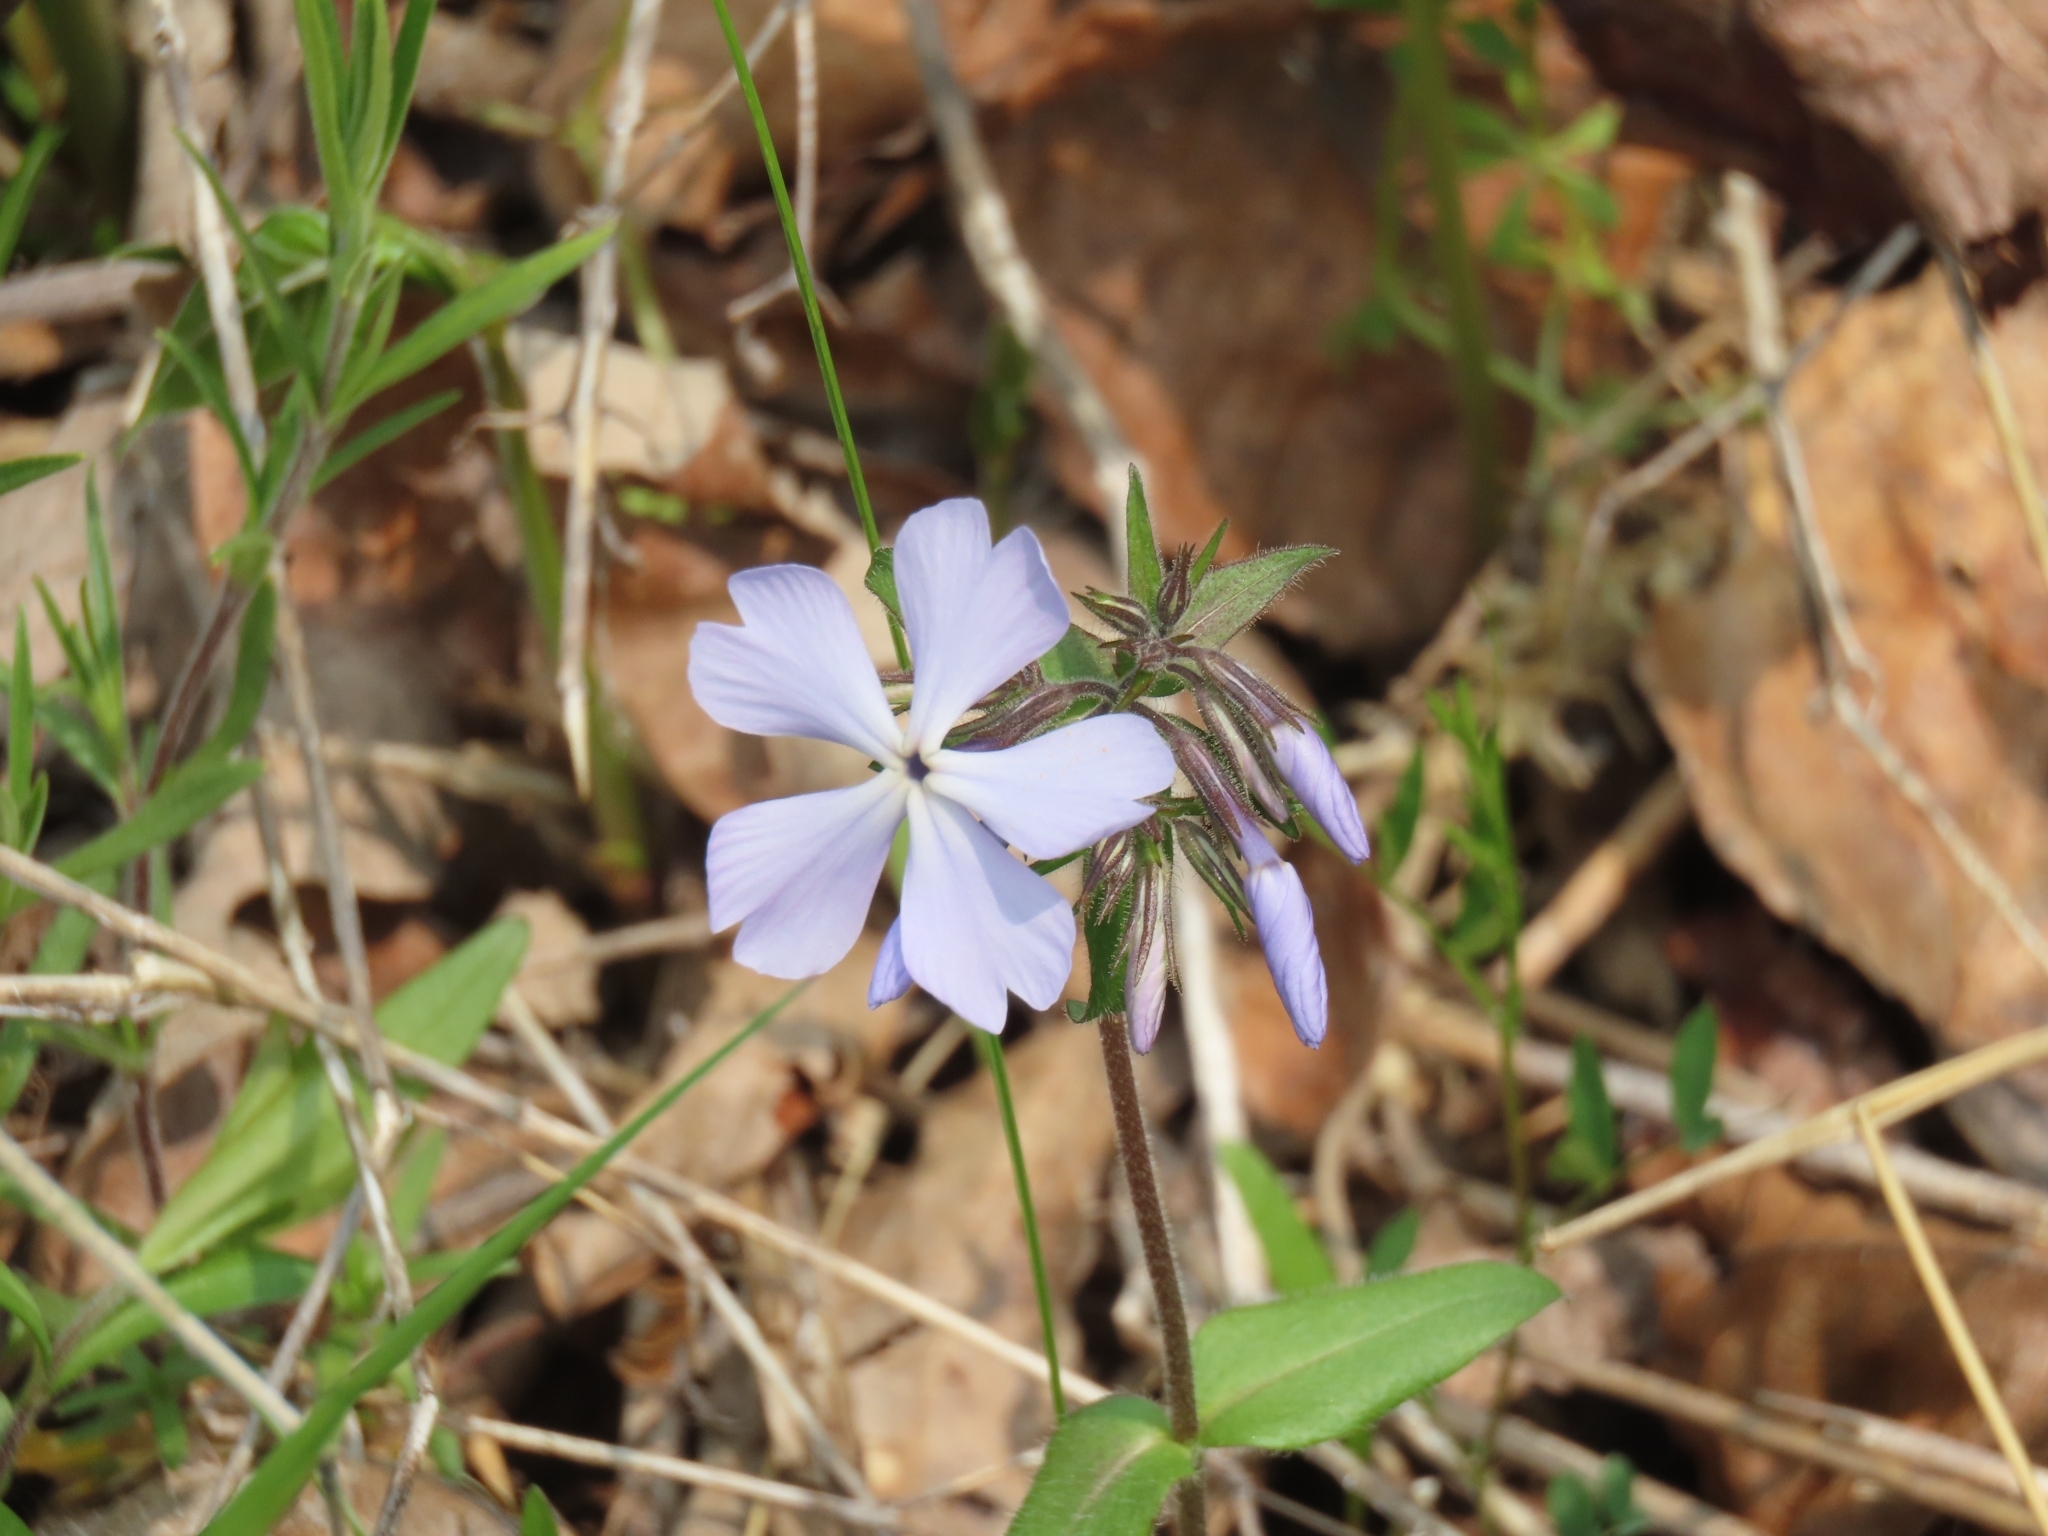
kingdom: Plantae
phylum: Tracheophyta
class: Magnoliopsida
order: Ericales
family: Polemoniaceae
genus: Phlox
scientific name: Phlox divaricata
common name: Blue phlox
